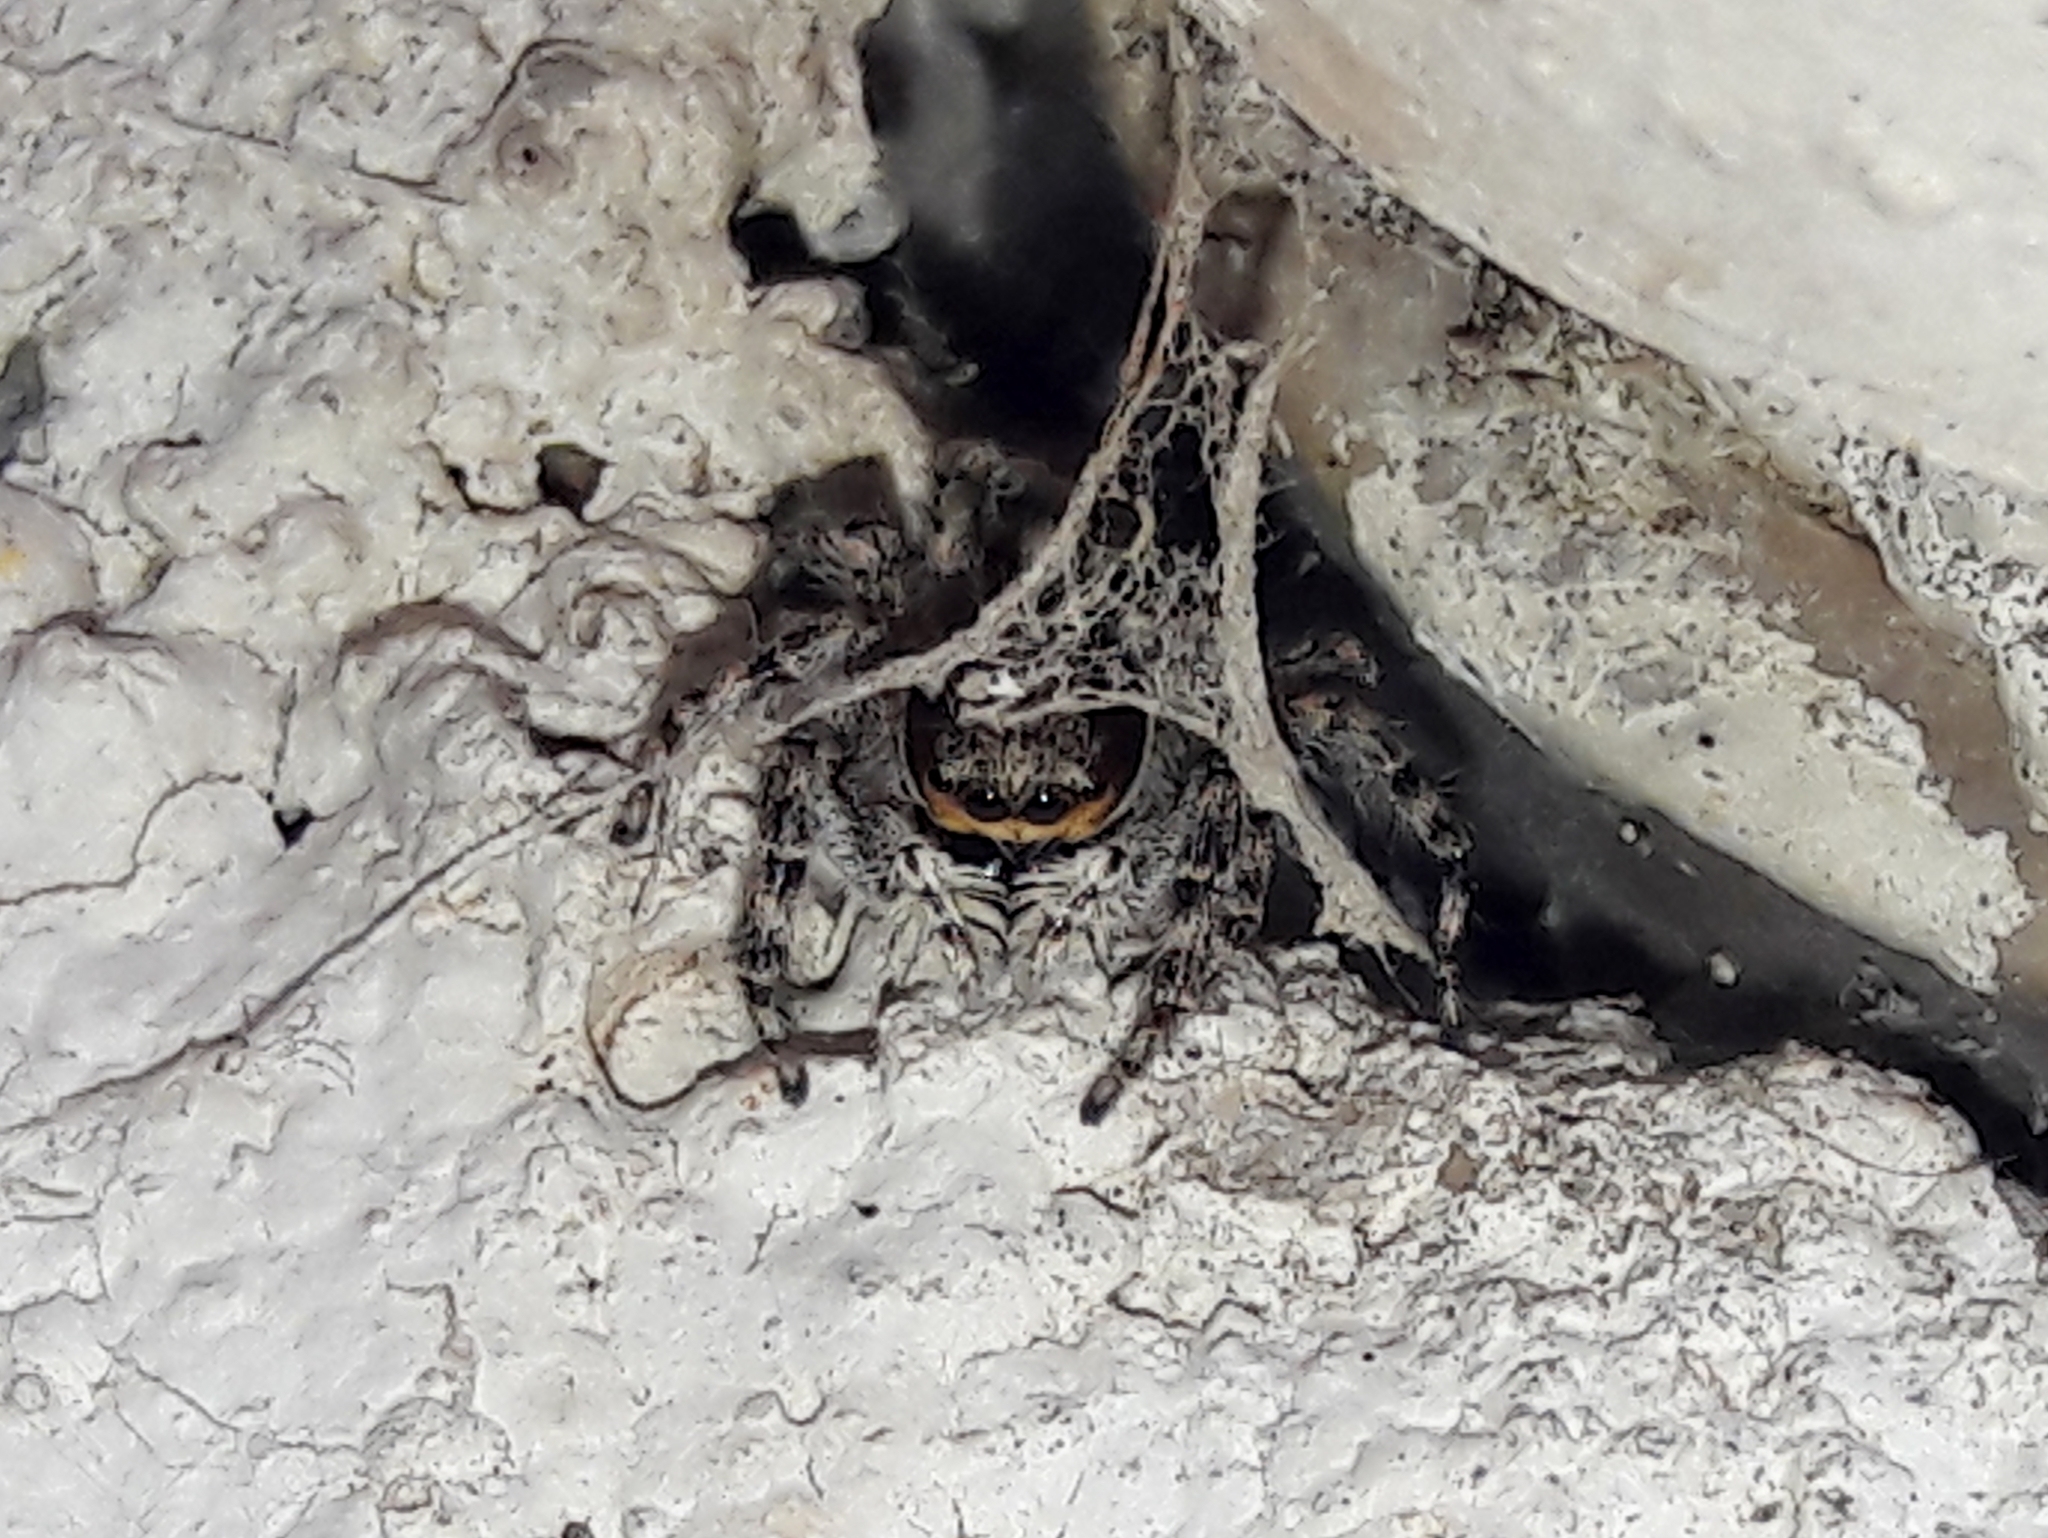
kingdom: Animalia
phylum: Arthropoda
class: Arachnida
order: Araneae
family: Salticidae
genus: Menemerus
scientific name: Menemerus bivittatus
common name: Gray wall jumper
